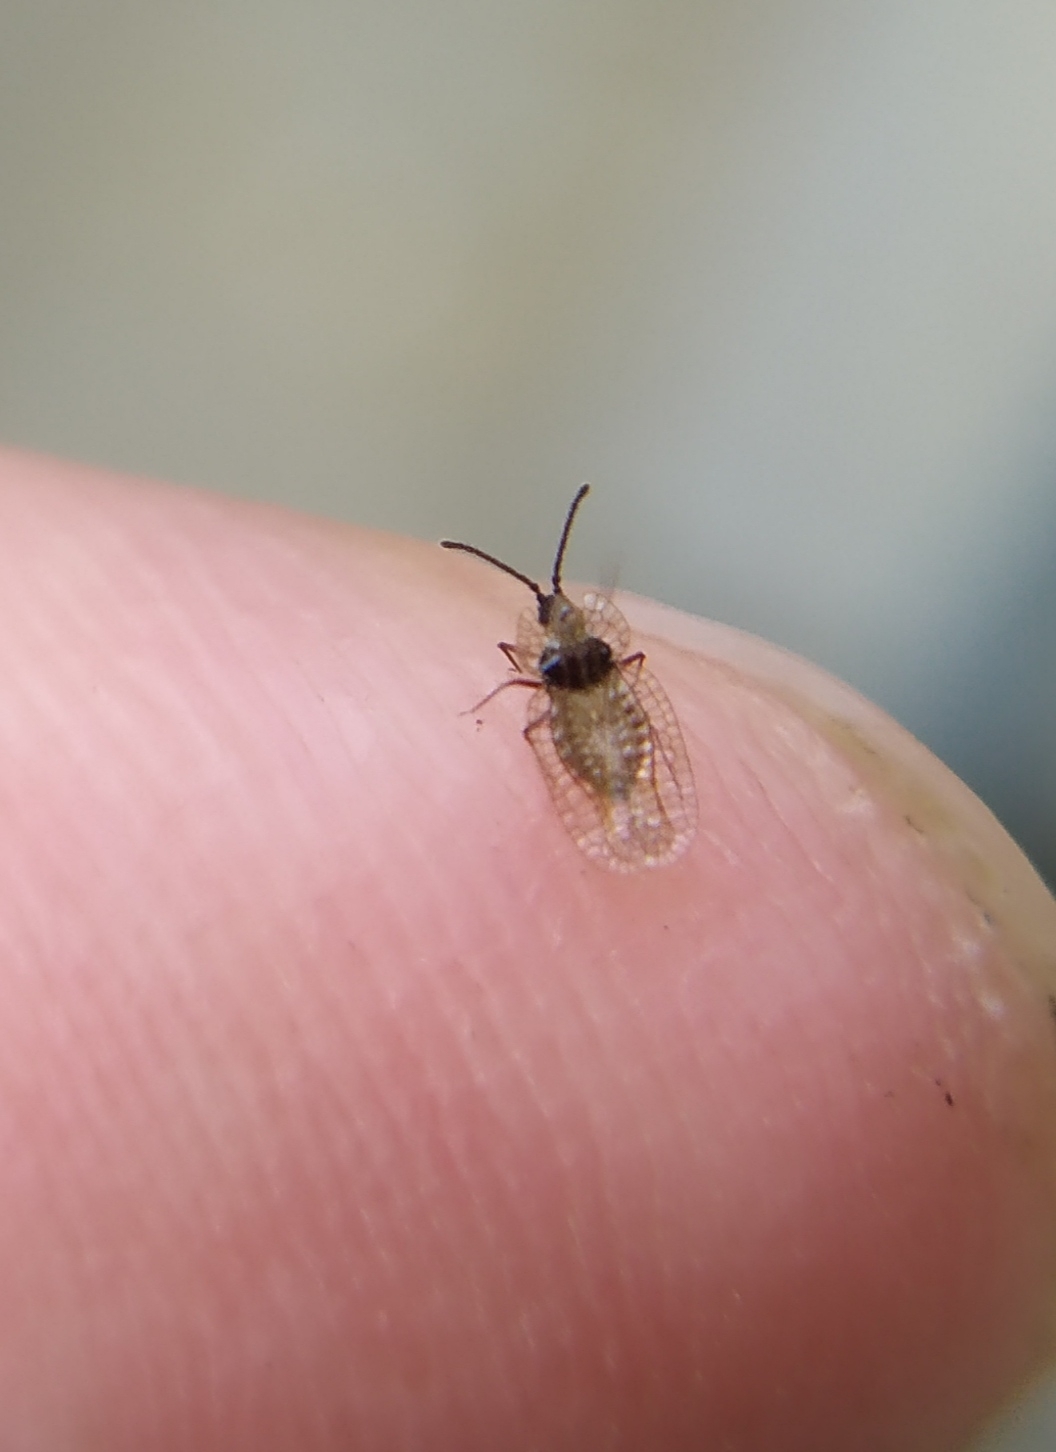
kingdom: Animalia
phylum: Arthropoda
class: Insecta
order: Hemiptera
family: Tingidae
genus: Derephysia
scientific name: Derephysia foliacea
